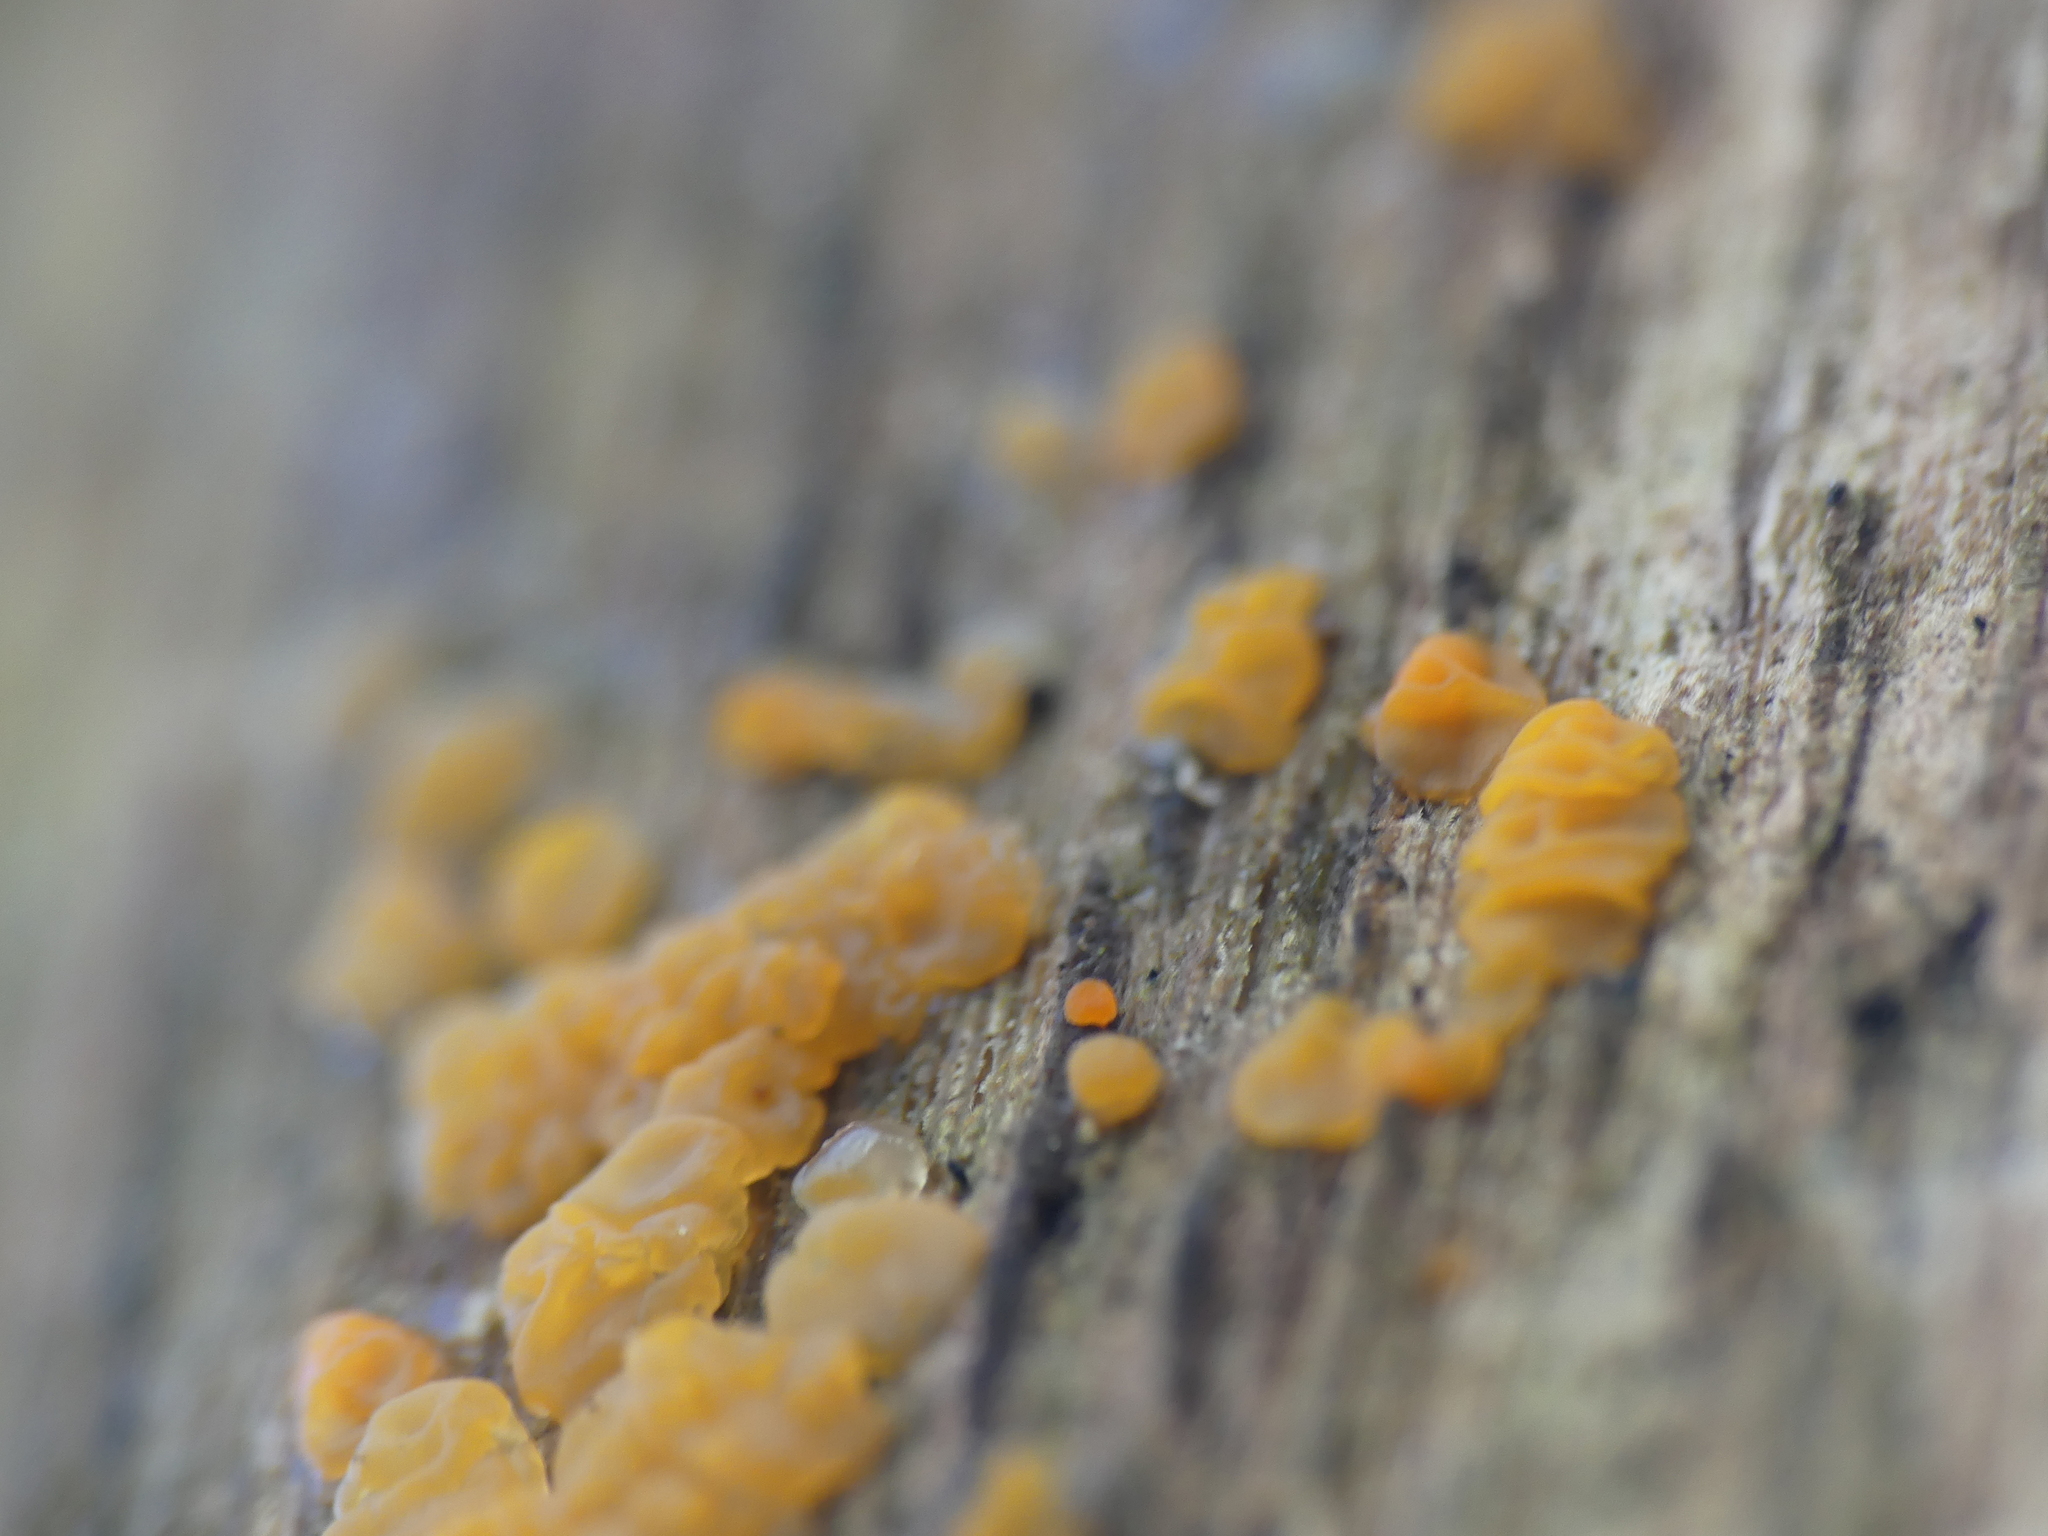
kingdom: Fungi
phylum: Basidiomycota
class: Dacrymycetes
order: Dacrymycetales
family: Dacrymycetaceae
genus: Dacrymyces
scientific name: Dacrymyces stillatus
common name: Common jelly spot
